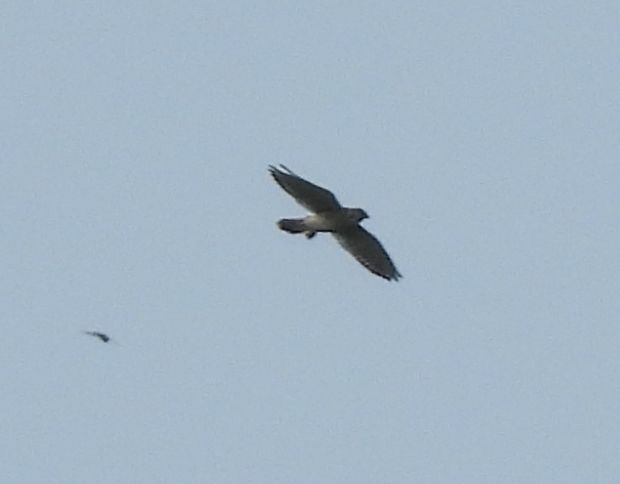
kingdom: Animalia
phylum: Chordata
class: Aves
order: Falconiformes
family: Falconidae
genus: Falco
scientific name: Falco sparverius
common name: American kestrel
